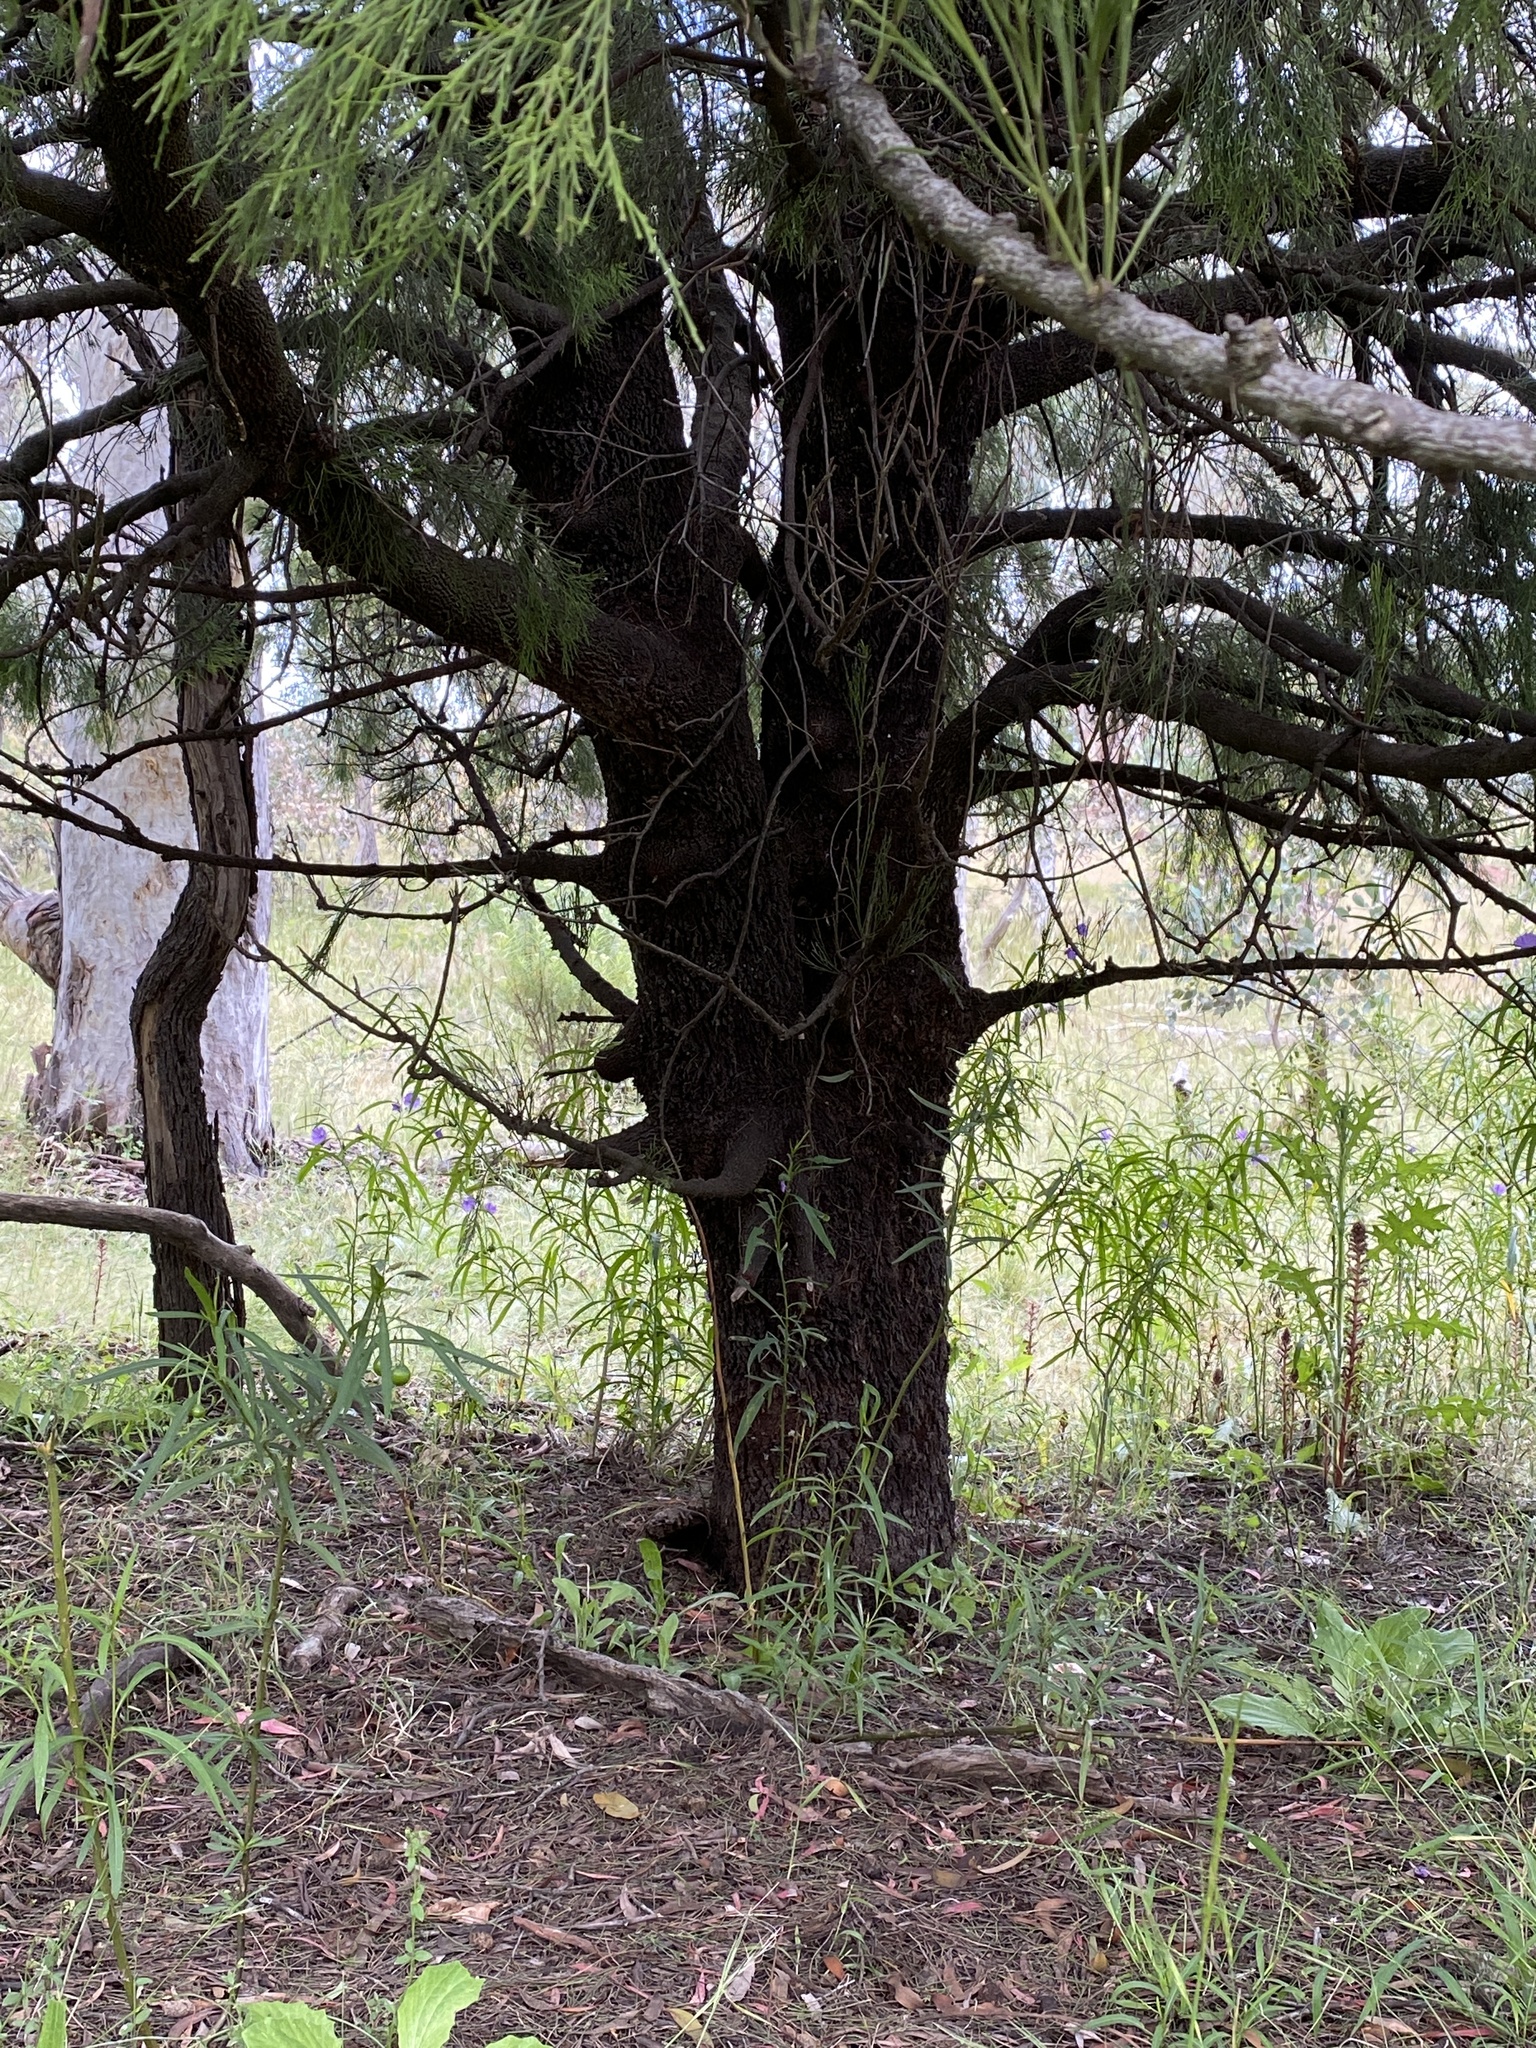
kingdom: Plantae
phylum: Tracheophyta
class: Magnoliopsida
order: Santalales
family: Santalaceae
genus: Exocarpos
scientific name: Exocarpos cupressiformis
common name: Cherry ballart
